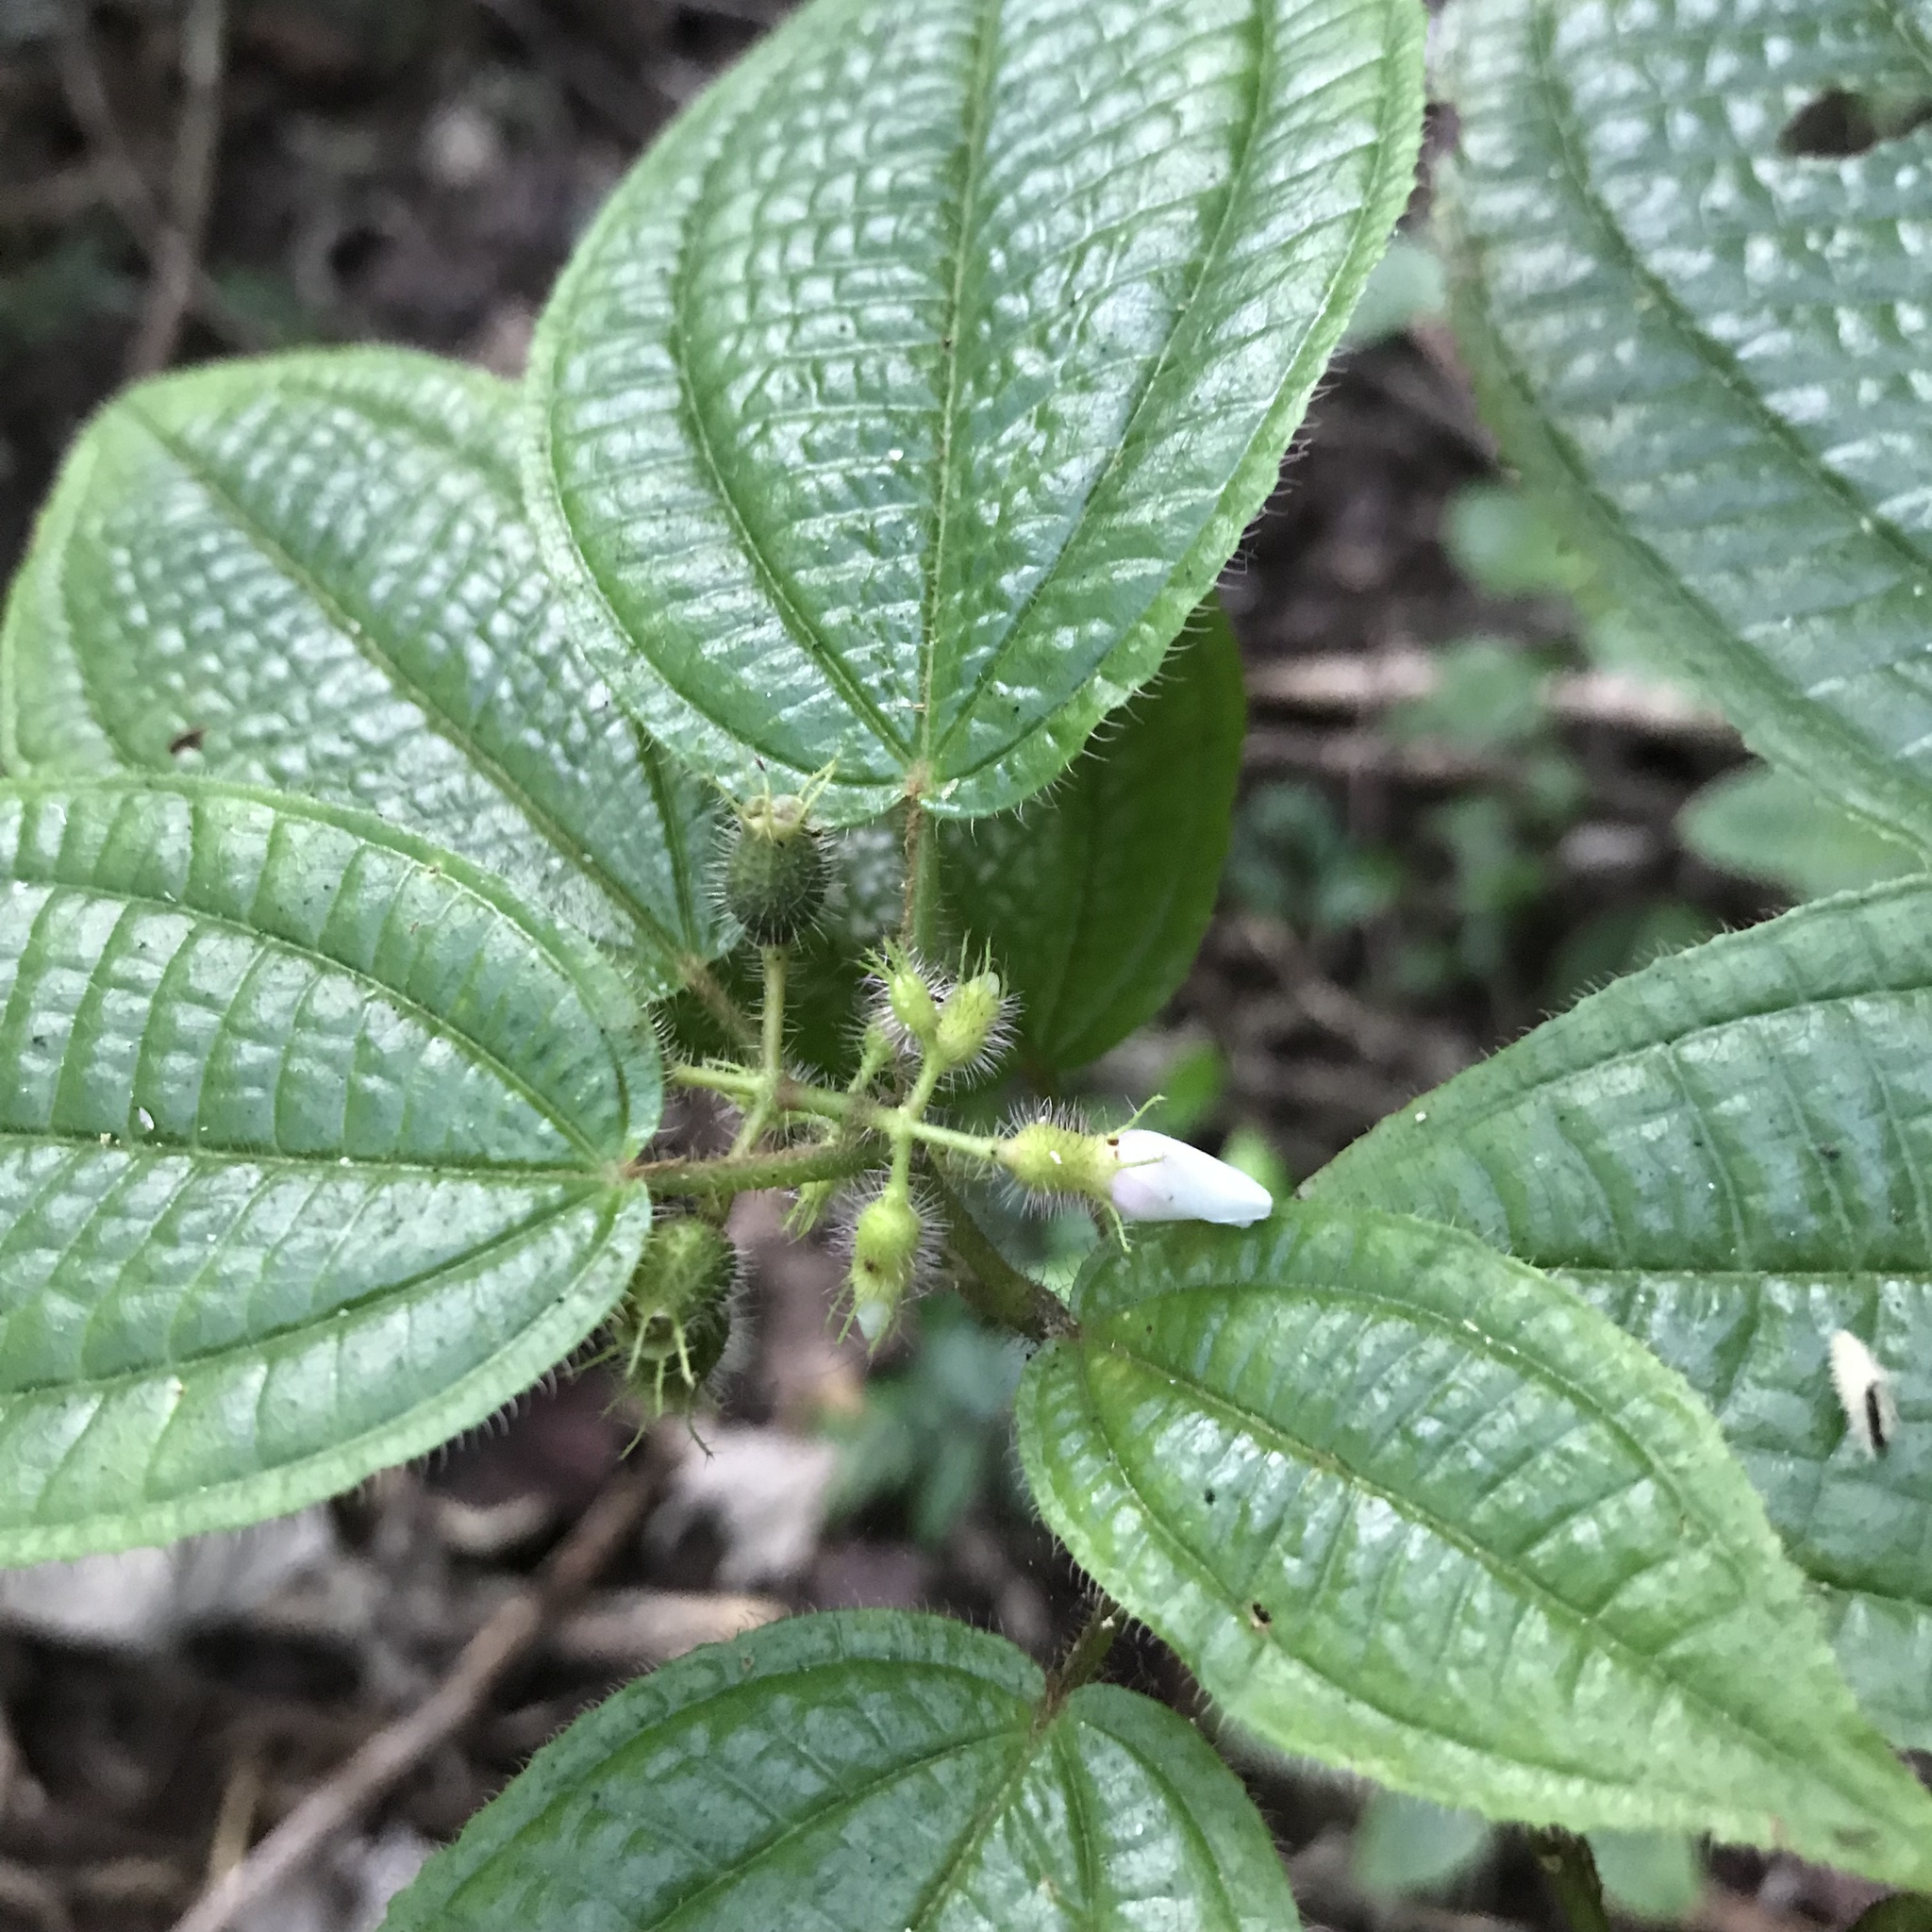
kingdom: Plantae
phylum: Tracheophyta
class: Magnoliopsida
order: Myrtales
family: Melastomataceae
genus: Miconia
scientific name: Miconia crenata
